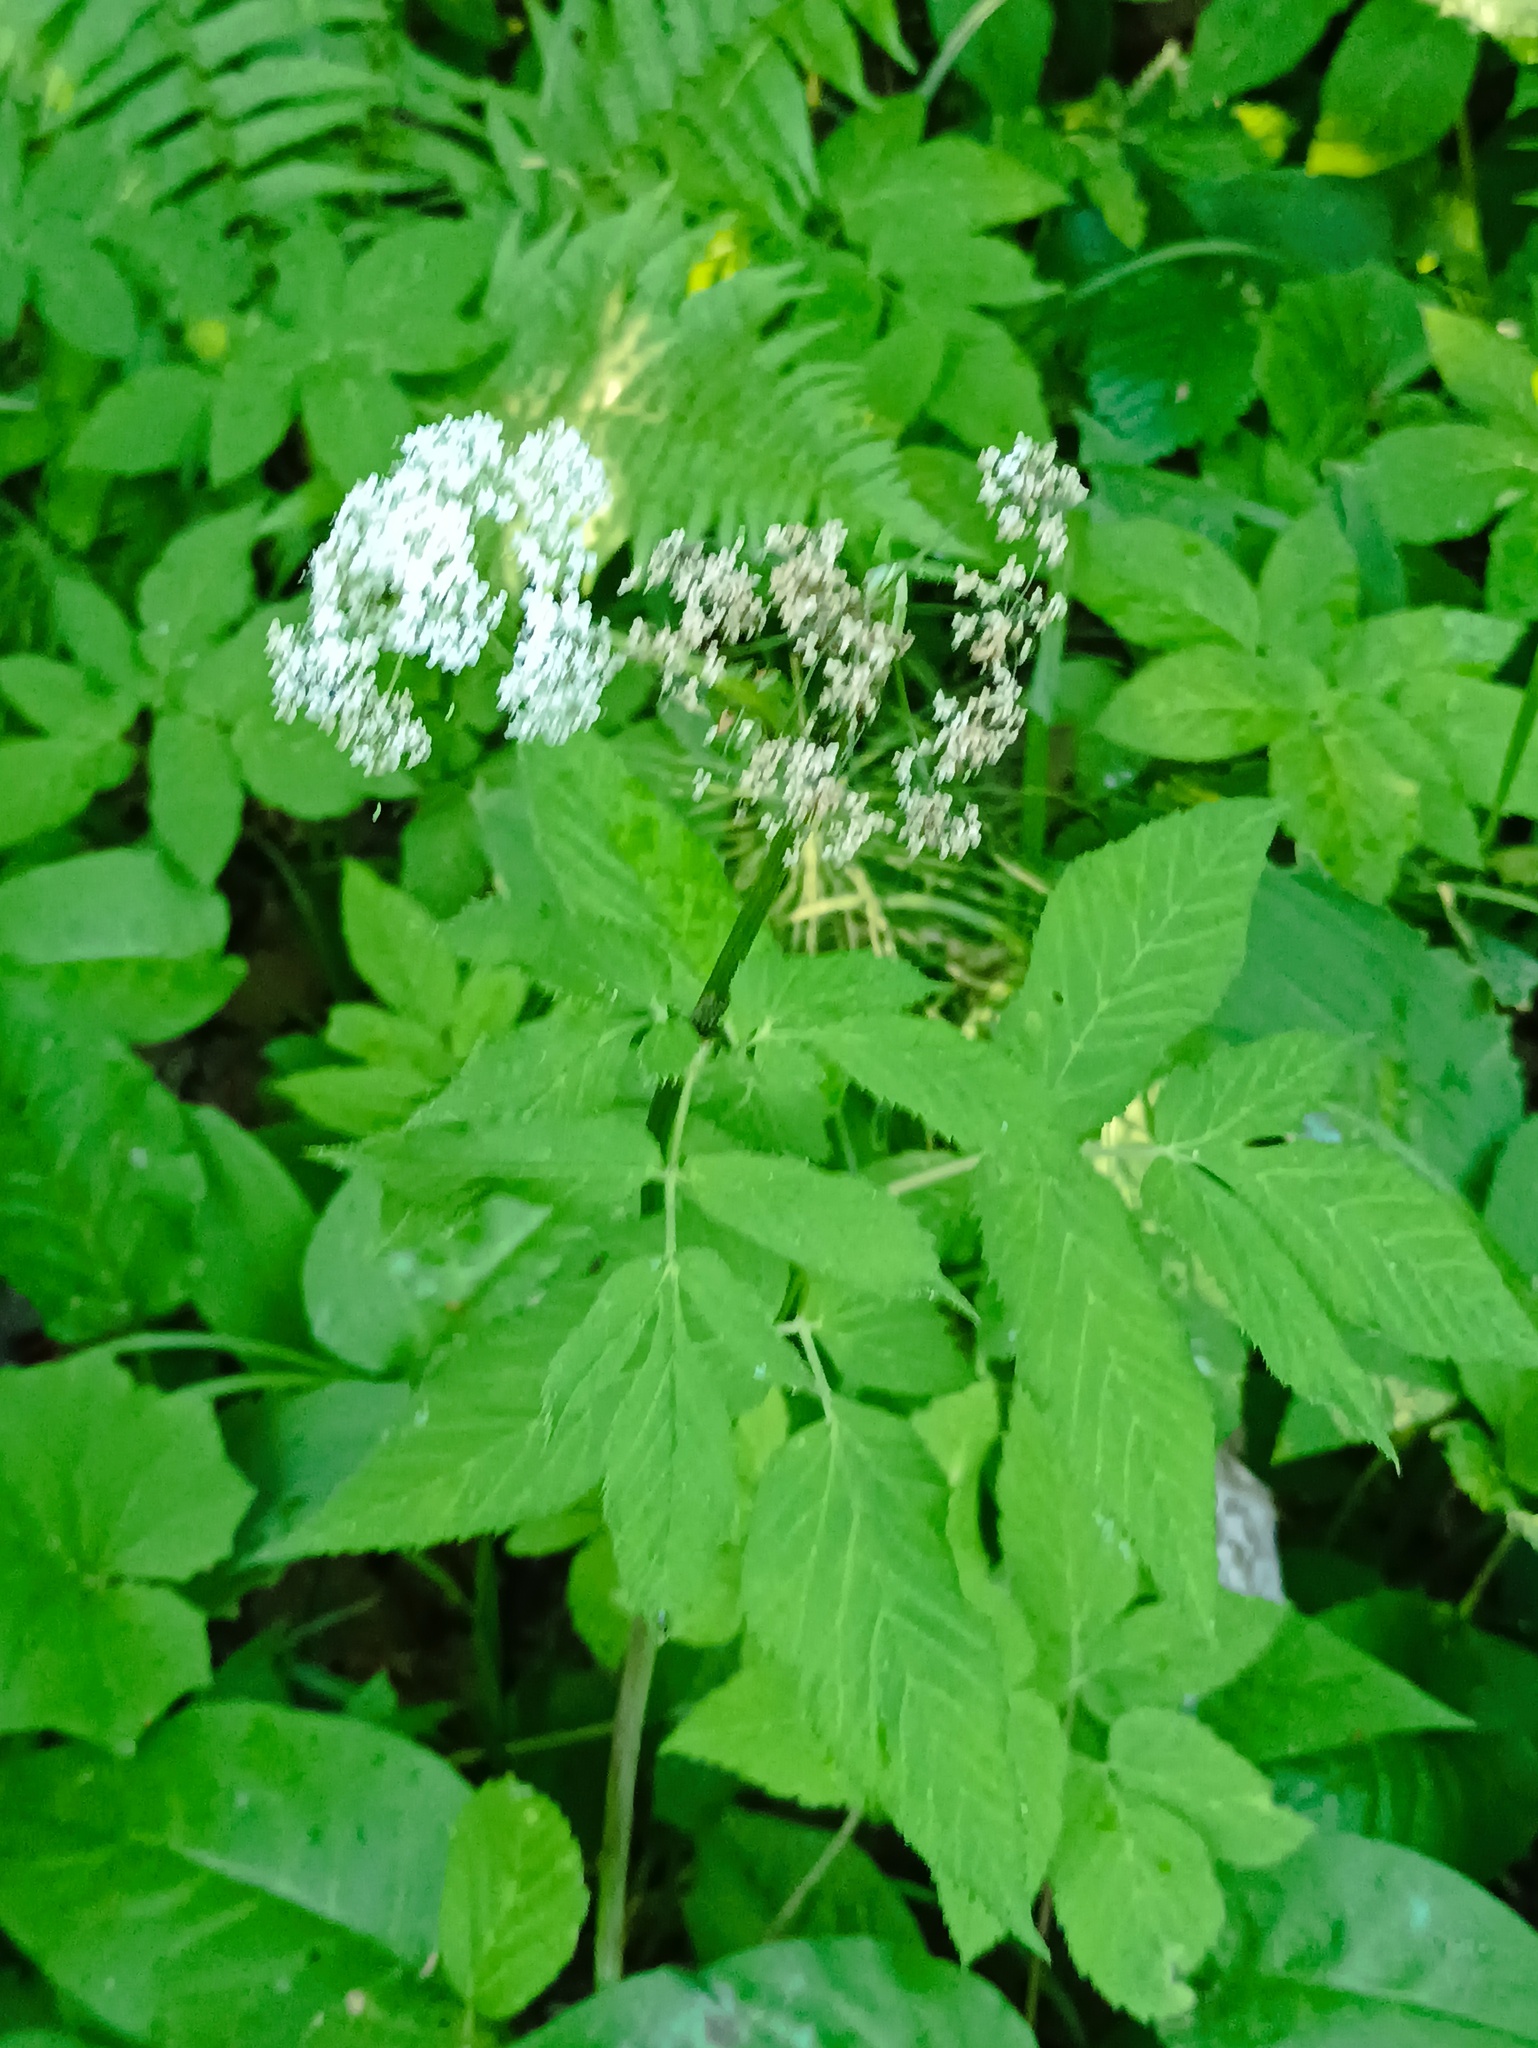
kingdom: Plantae
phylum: Tracheophyta
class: Magnoliopsida
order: Apiales
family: Apiaceae
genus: Aegopodium
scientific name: Aegopodium podagraria
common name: Ground-elder
